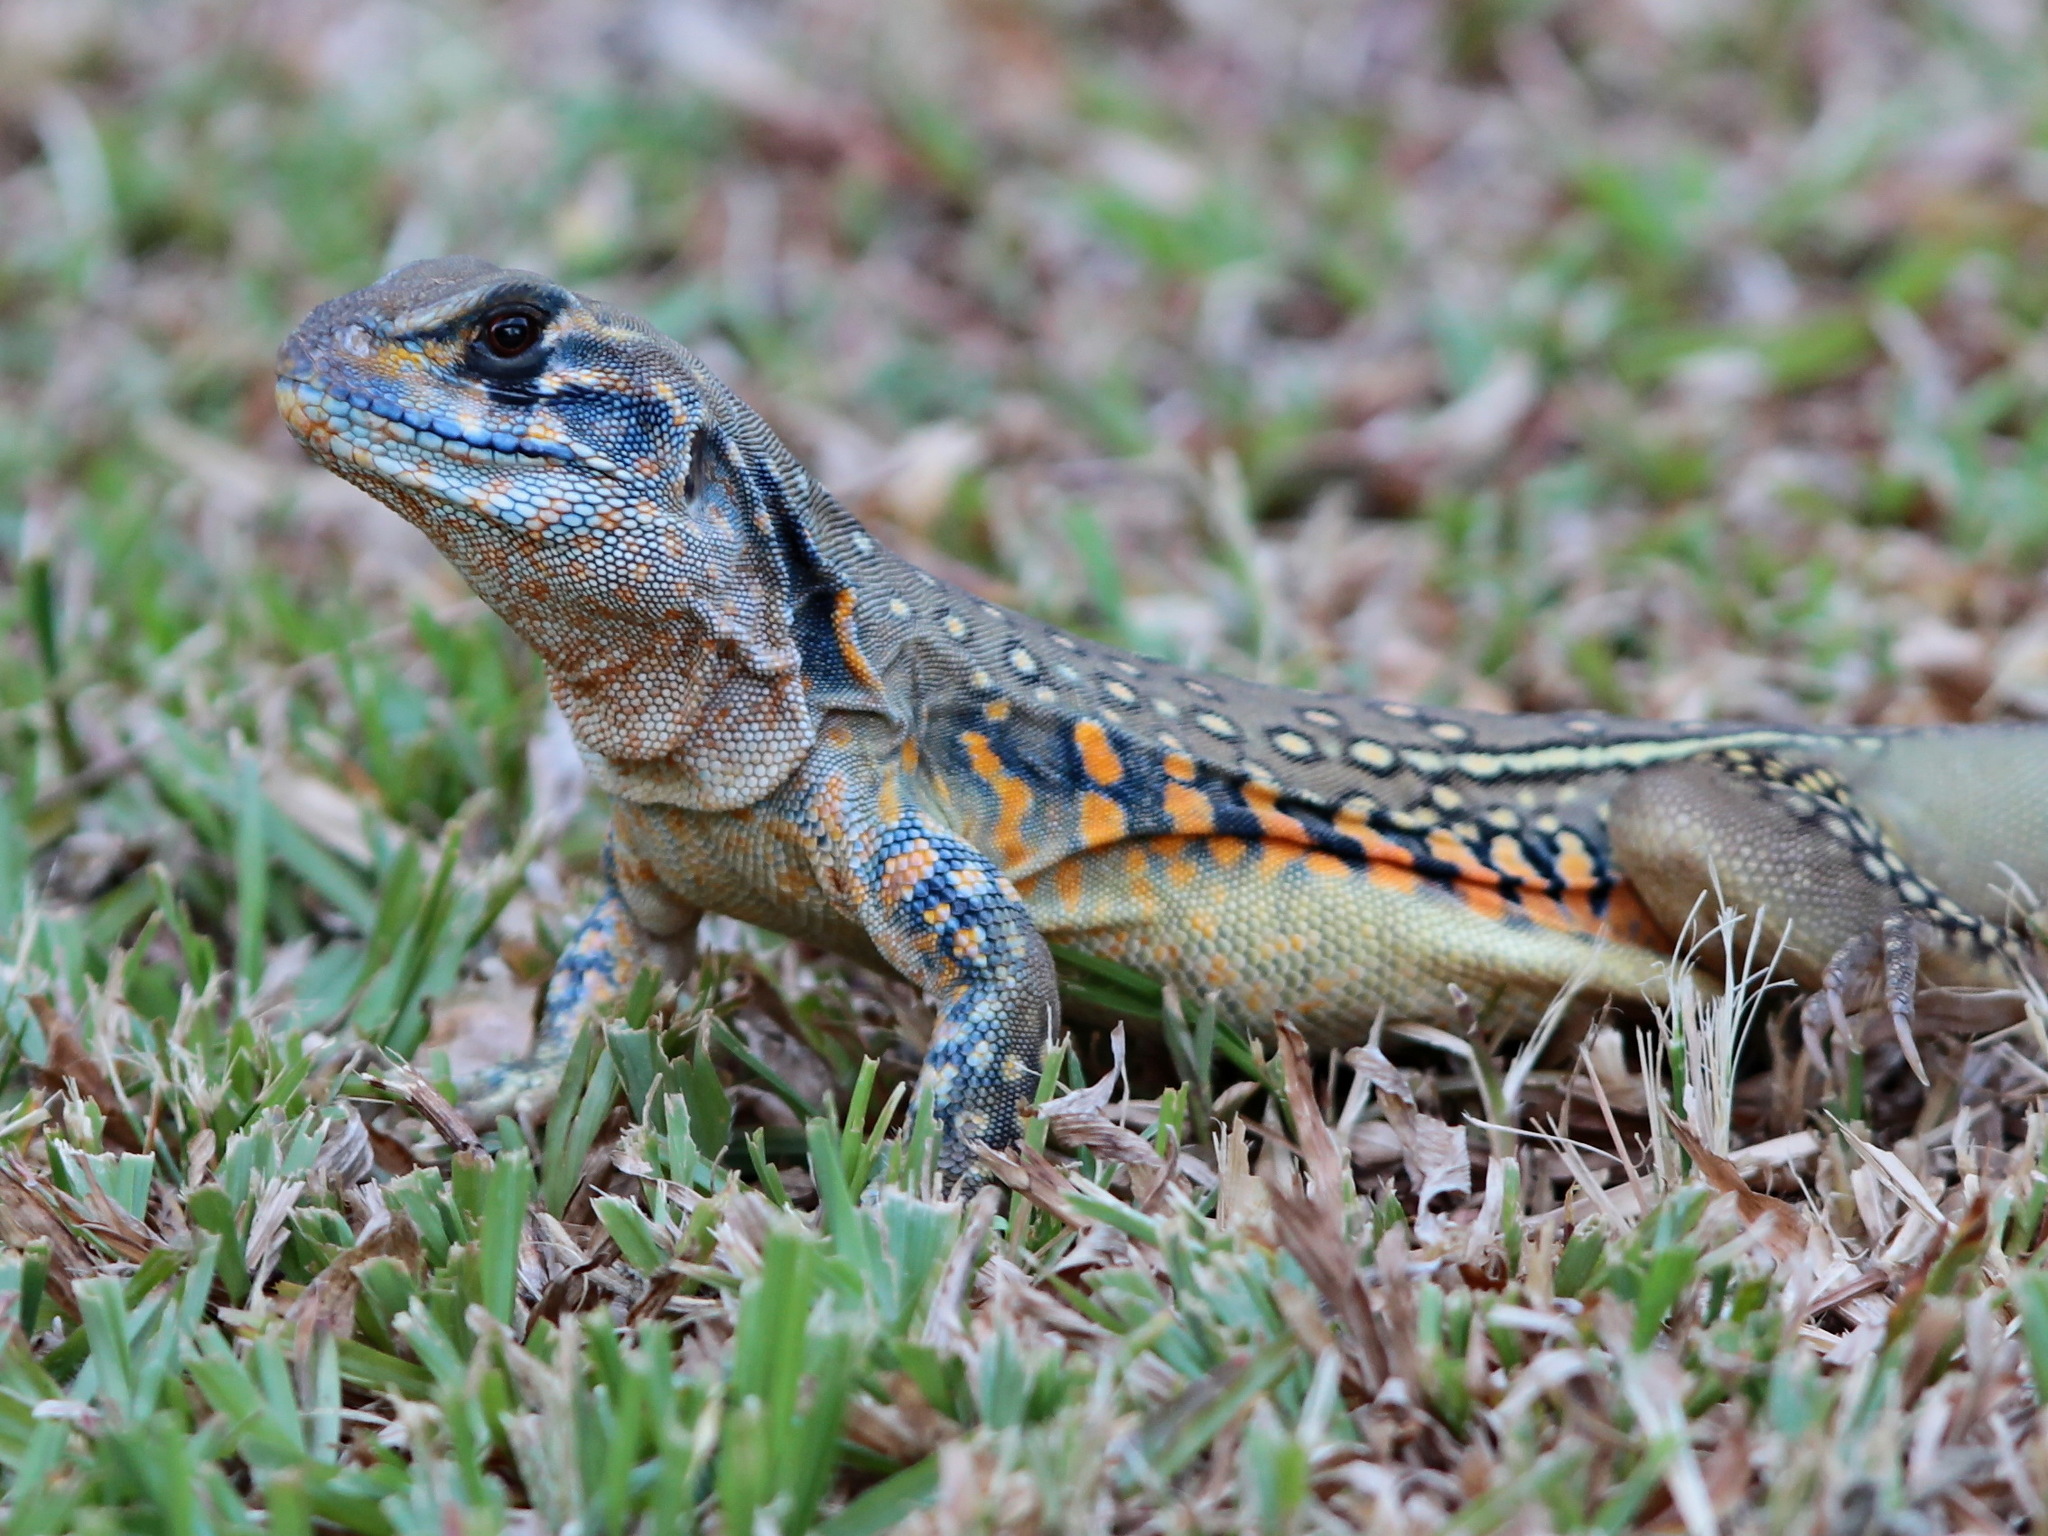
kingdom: Animalia
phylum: Chordata
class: Squamata
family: Agamidae
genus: Leiolepis
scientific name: Leiolepis belliana
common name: Common butterfly lizard
